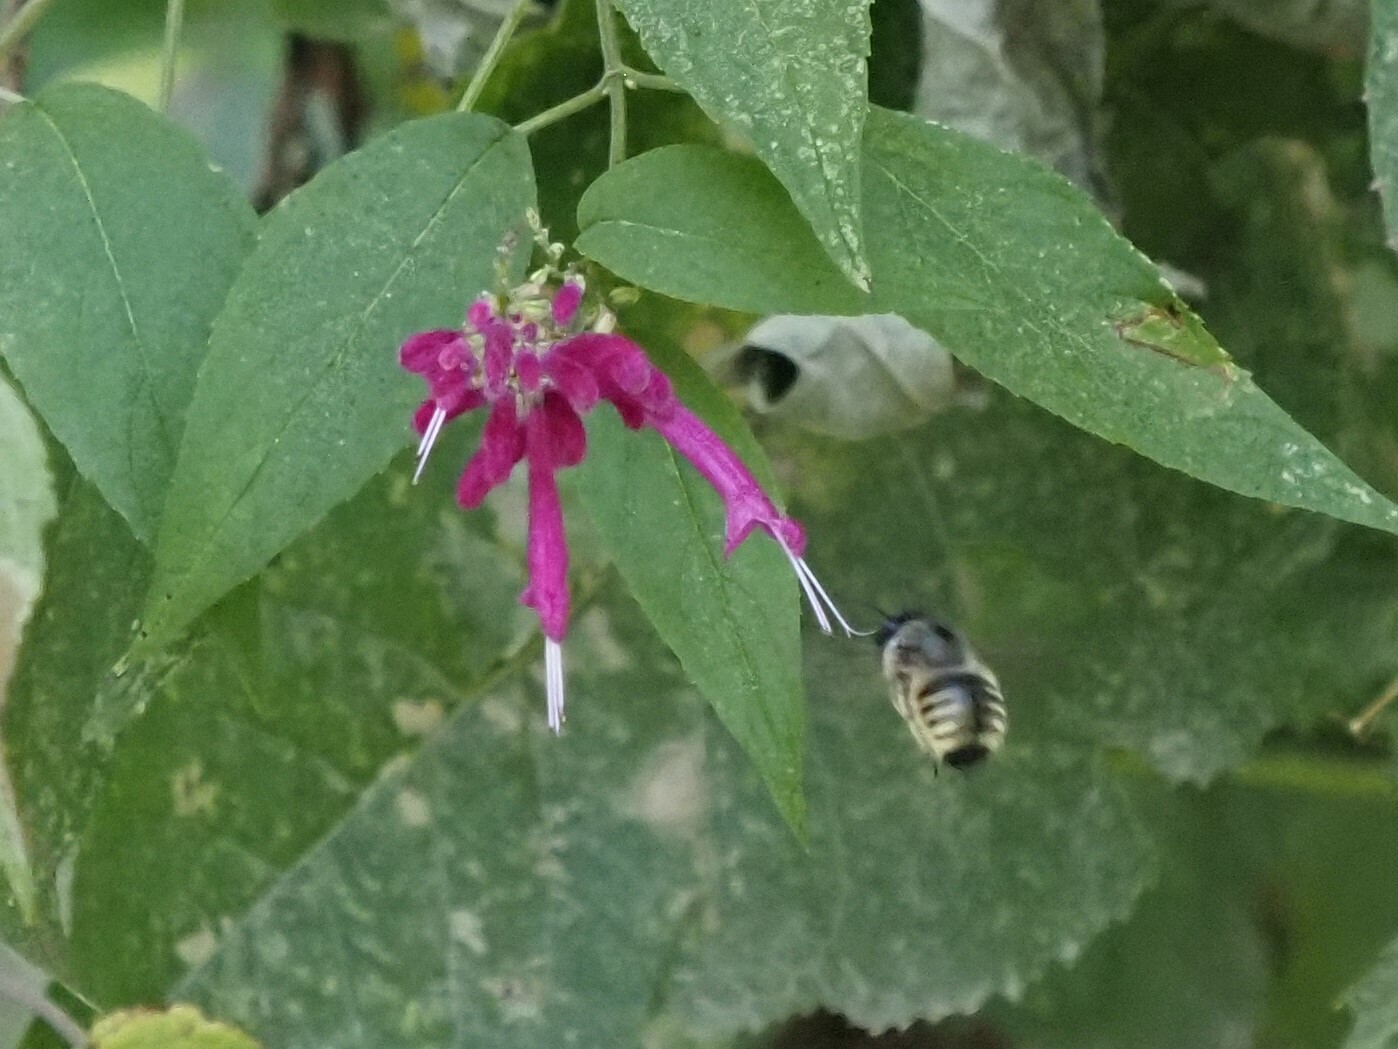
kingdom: Animalia
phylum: Arthropoda
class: Insecta
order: Hymenoptera
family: Apidae
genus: Xylocopa
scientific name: Xylocopa tabaniformis
